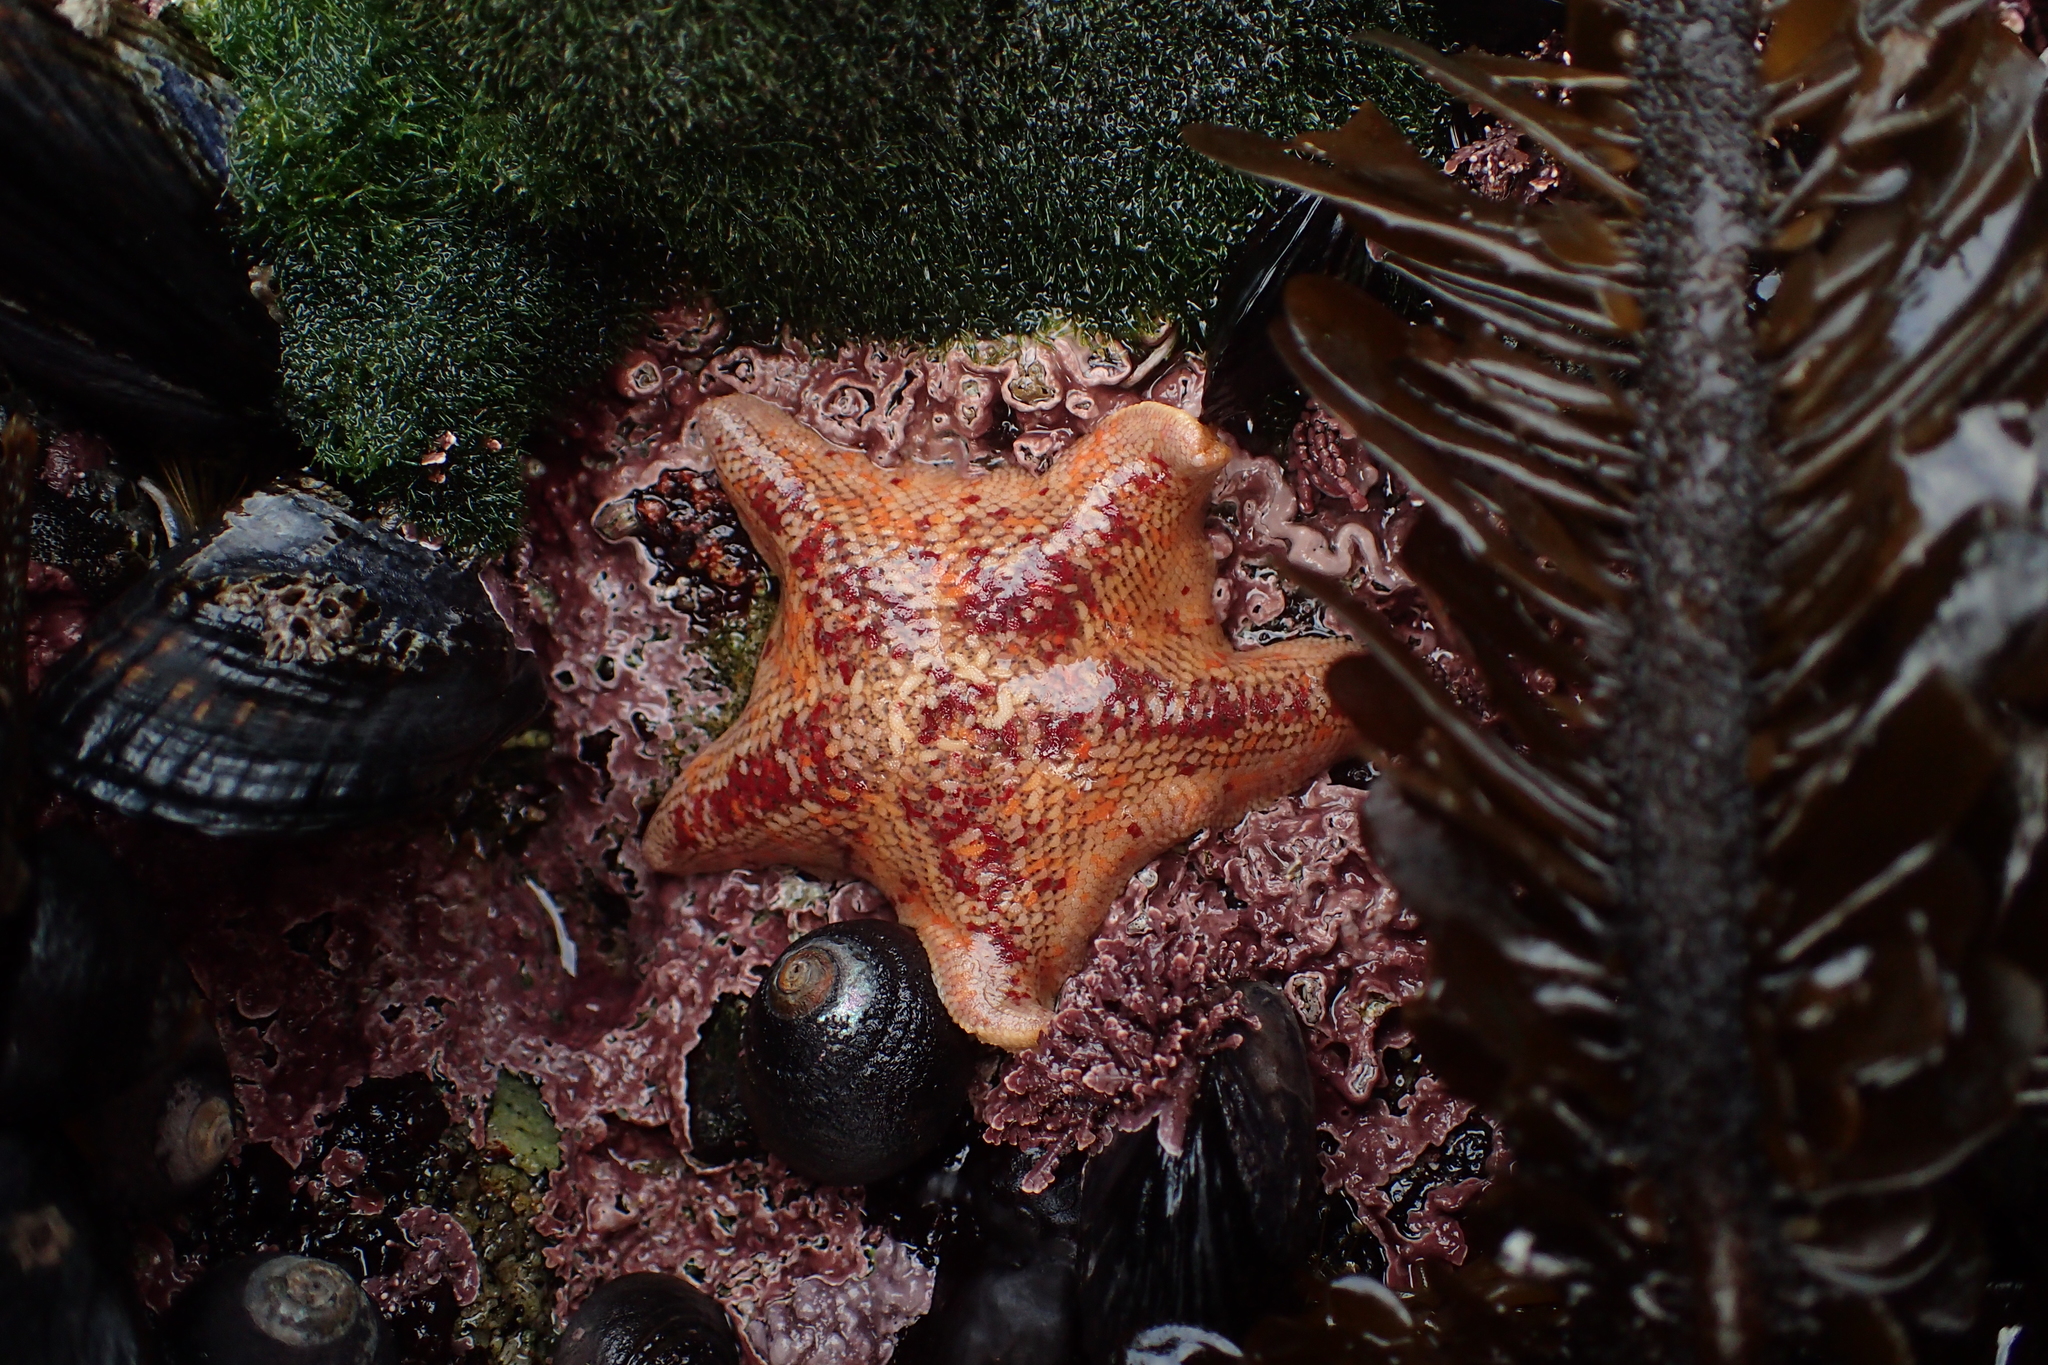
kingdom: Animalia
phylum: Echinodermata
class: Asteroidea
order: Valvatida
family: Asterinidae
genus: Patiria
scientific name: Patiria miniata
